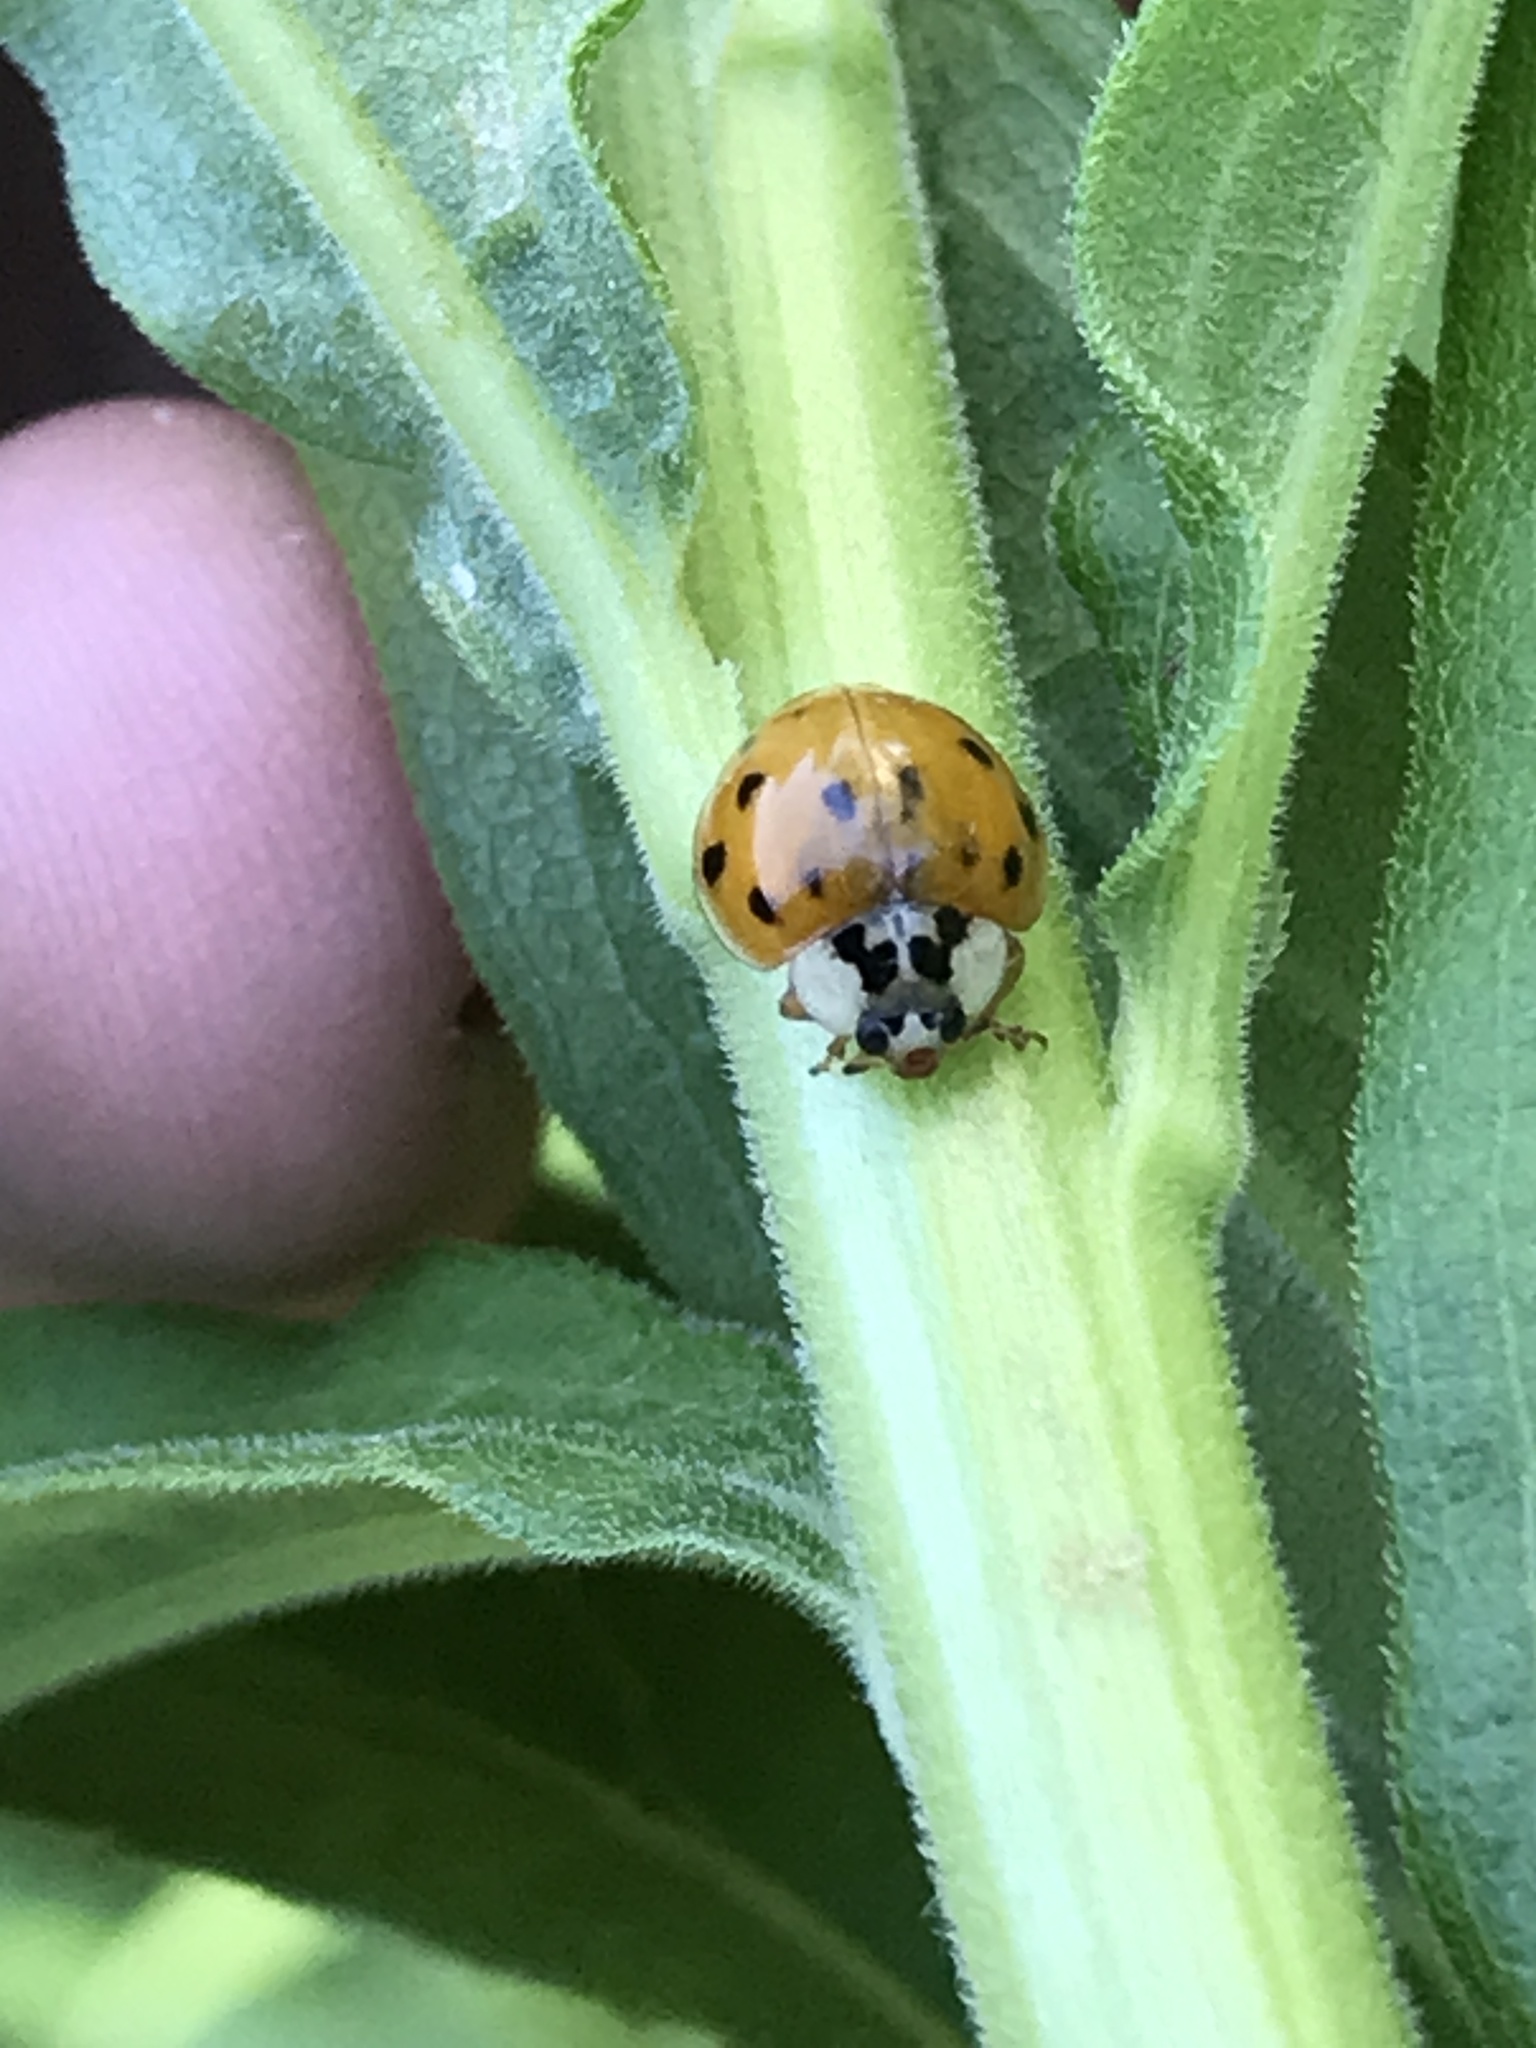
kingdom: Animalia
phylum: Arthropoda
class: Insecta
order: Coleoptera
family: Coccinellidae
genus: Harmonia
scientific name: Harmonia axyridis
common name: Harlequin ladybird
